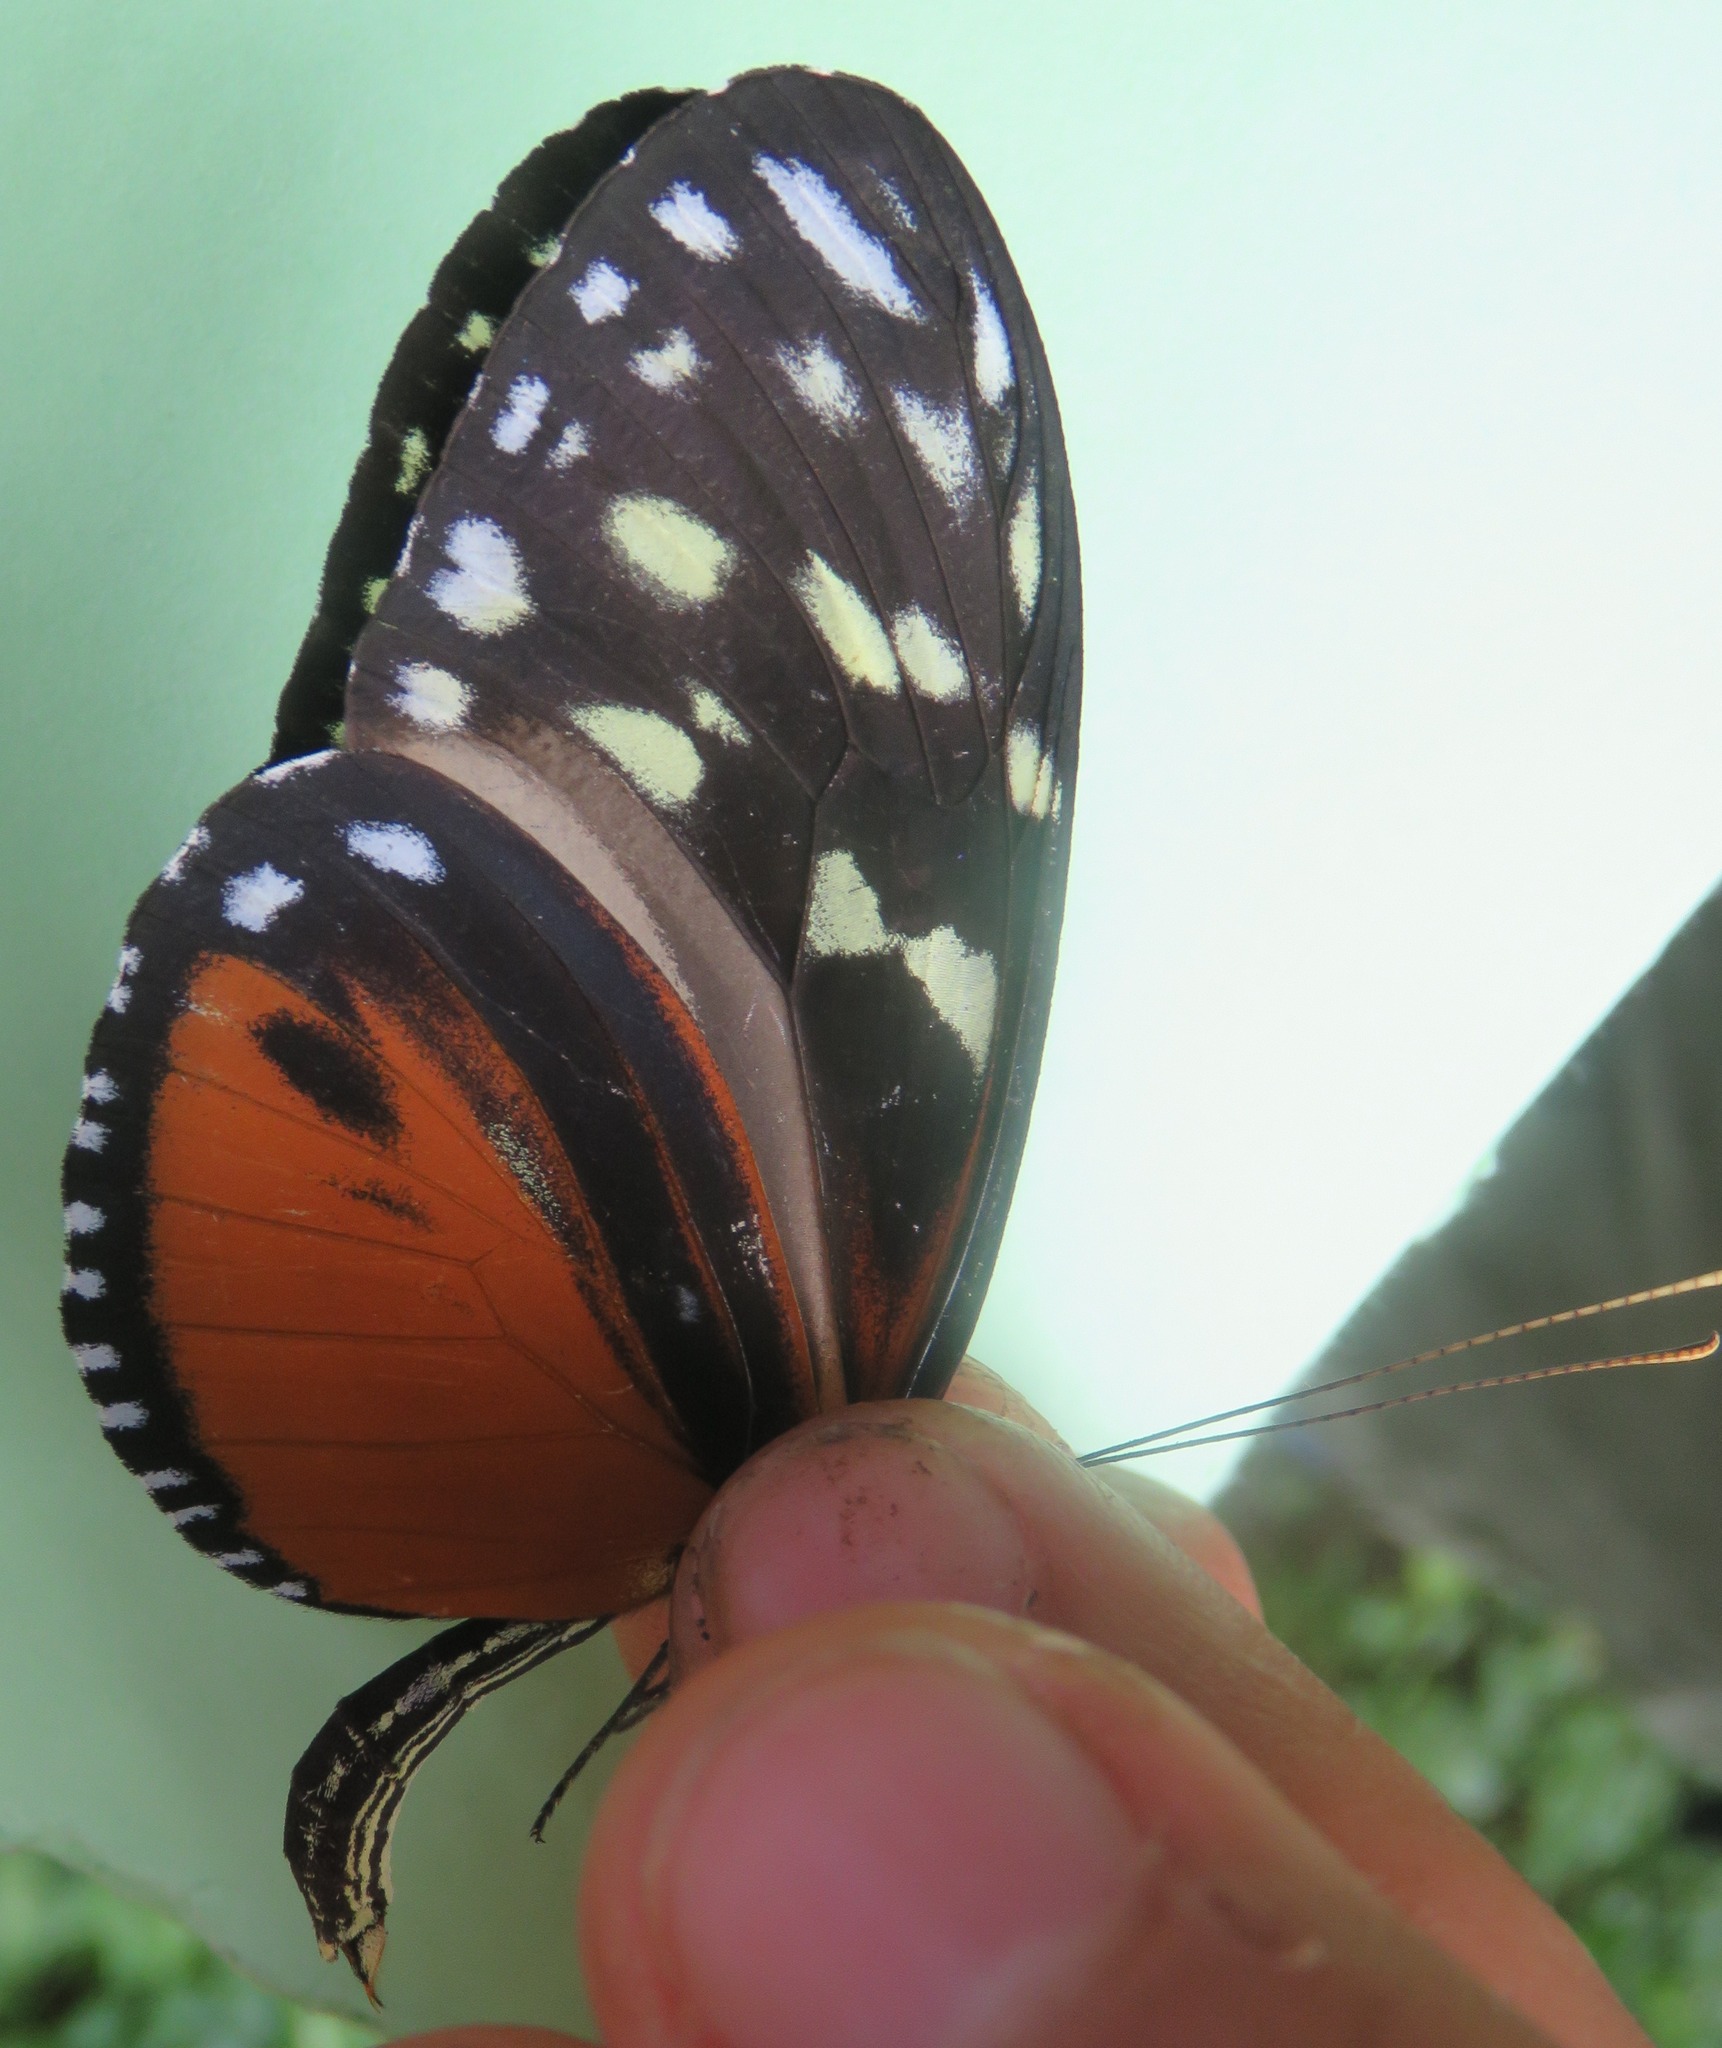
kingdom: Animalia
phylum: Arthropoda
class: Insecta
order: Lepidoptera
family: Nymphalidae
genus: Heliconius
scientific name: Heliconius hecale
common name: Tiger longwing
